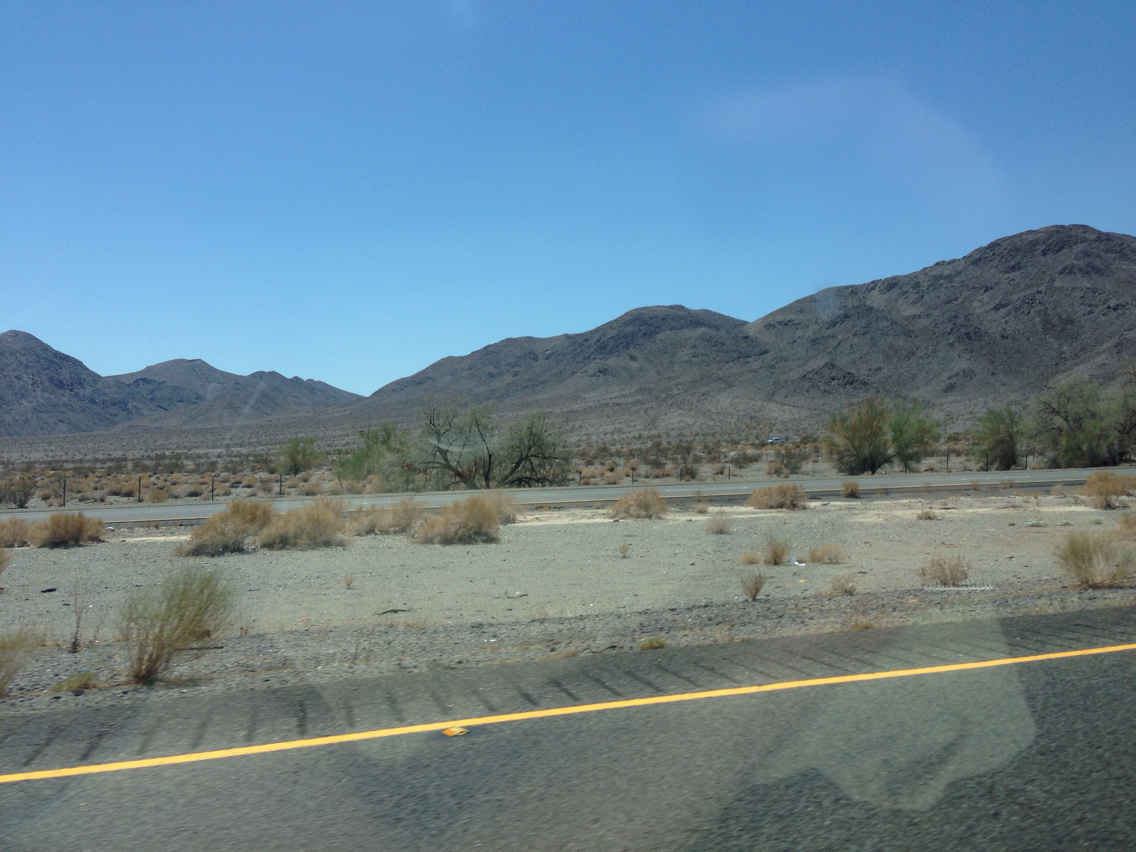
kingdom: Plantae
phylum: Tracheophyta
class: Magnoliopsida
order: Caryophyllales
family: Tamaricaceae
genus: Tamarix
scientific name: Tamarix aphylla
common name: Athel tamarisk
